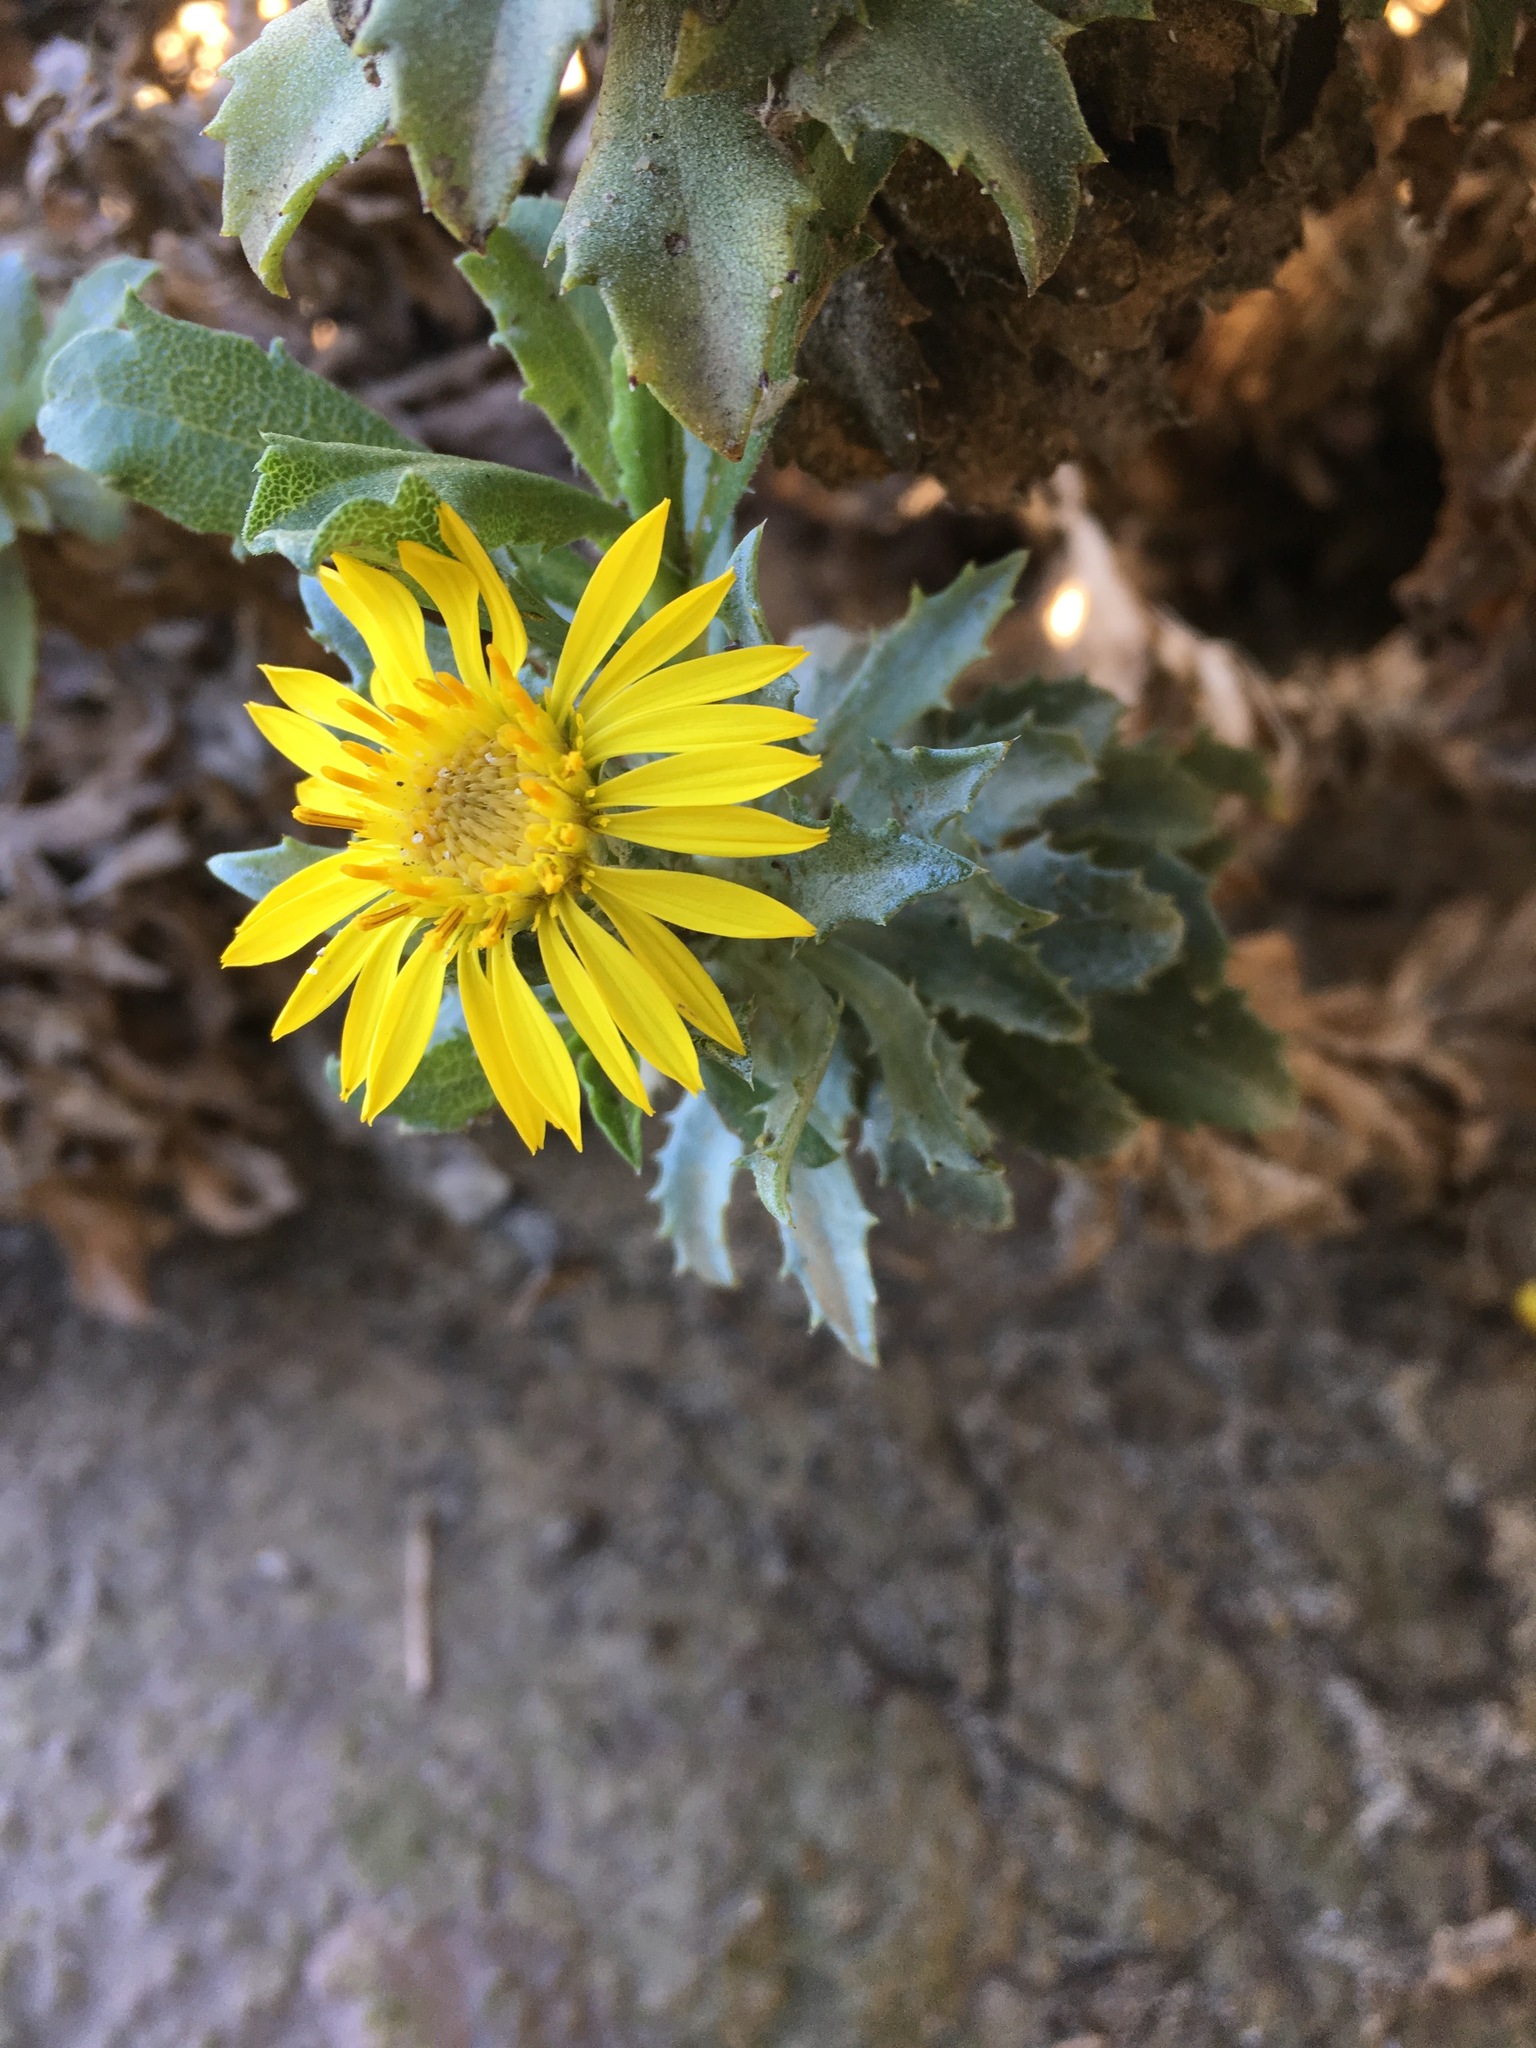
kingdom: Plantae
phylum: Tracheophyta
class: Magnoliopsida
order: Asterales
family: Asteraceae
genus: Haplopappus
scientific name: Haplopappus foliosus
